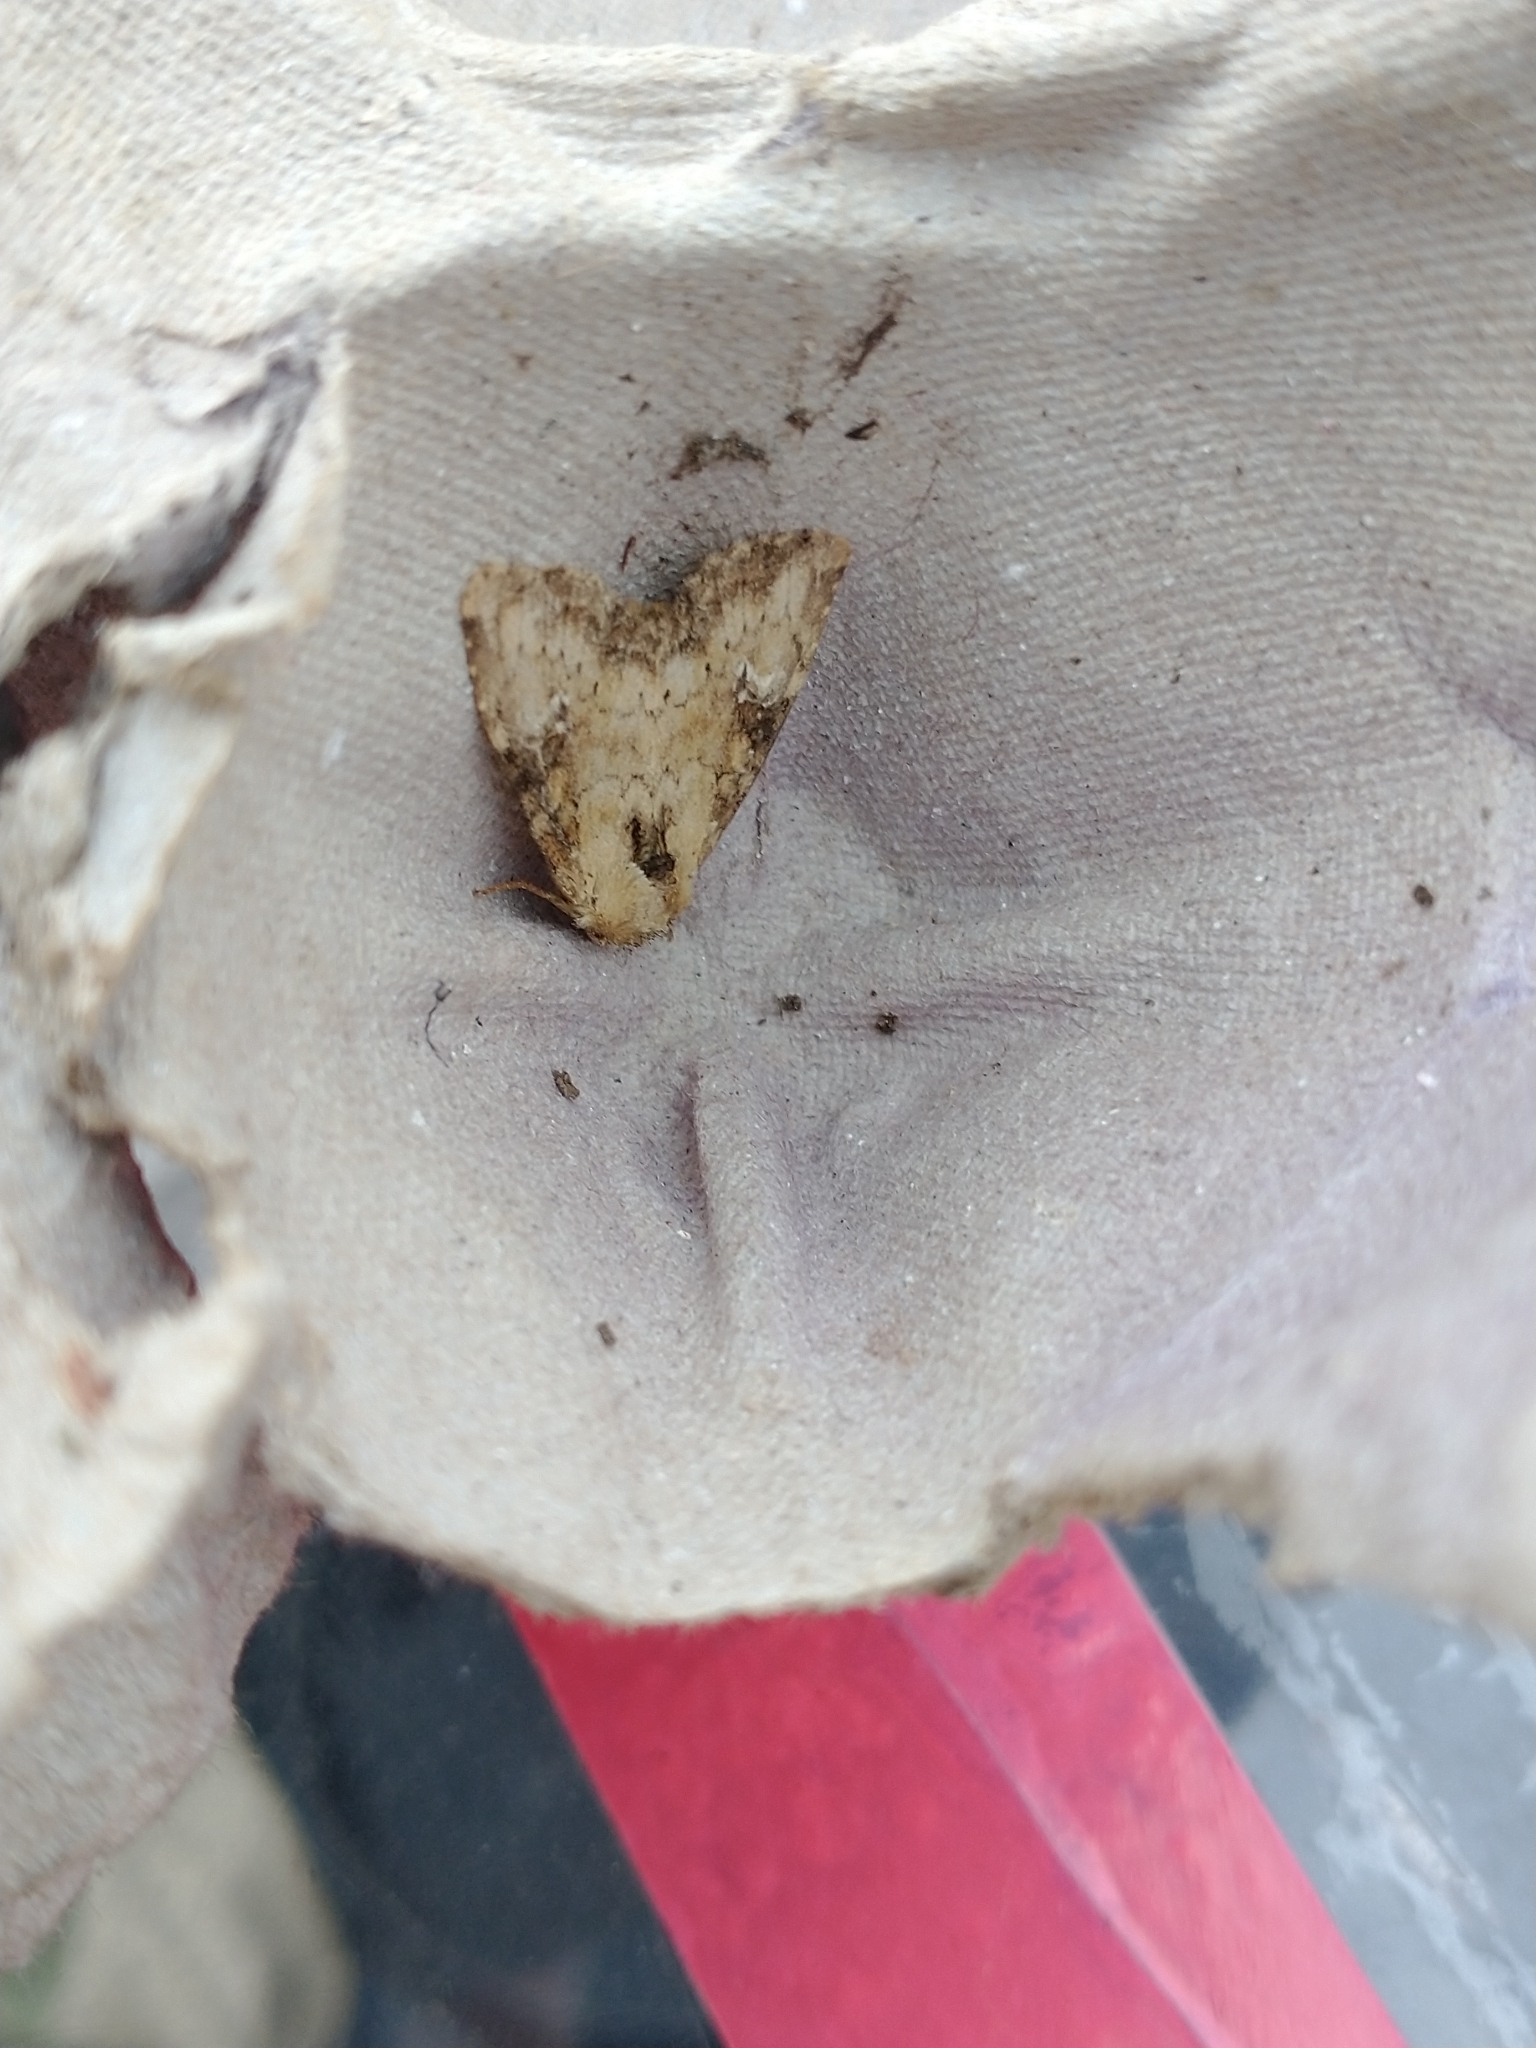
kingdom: Animalia
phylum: Arthropoda
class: Insecta
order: Lepidoptera
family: Noctuidae
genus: Loscopia
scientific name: Loscopia scolopacina
